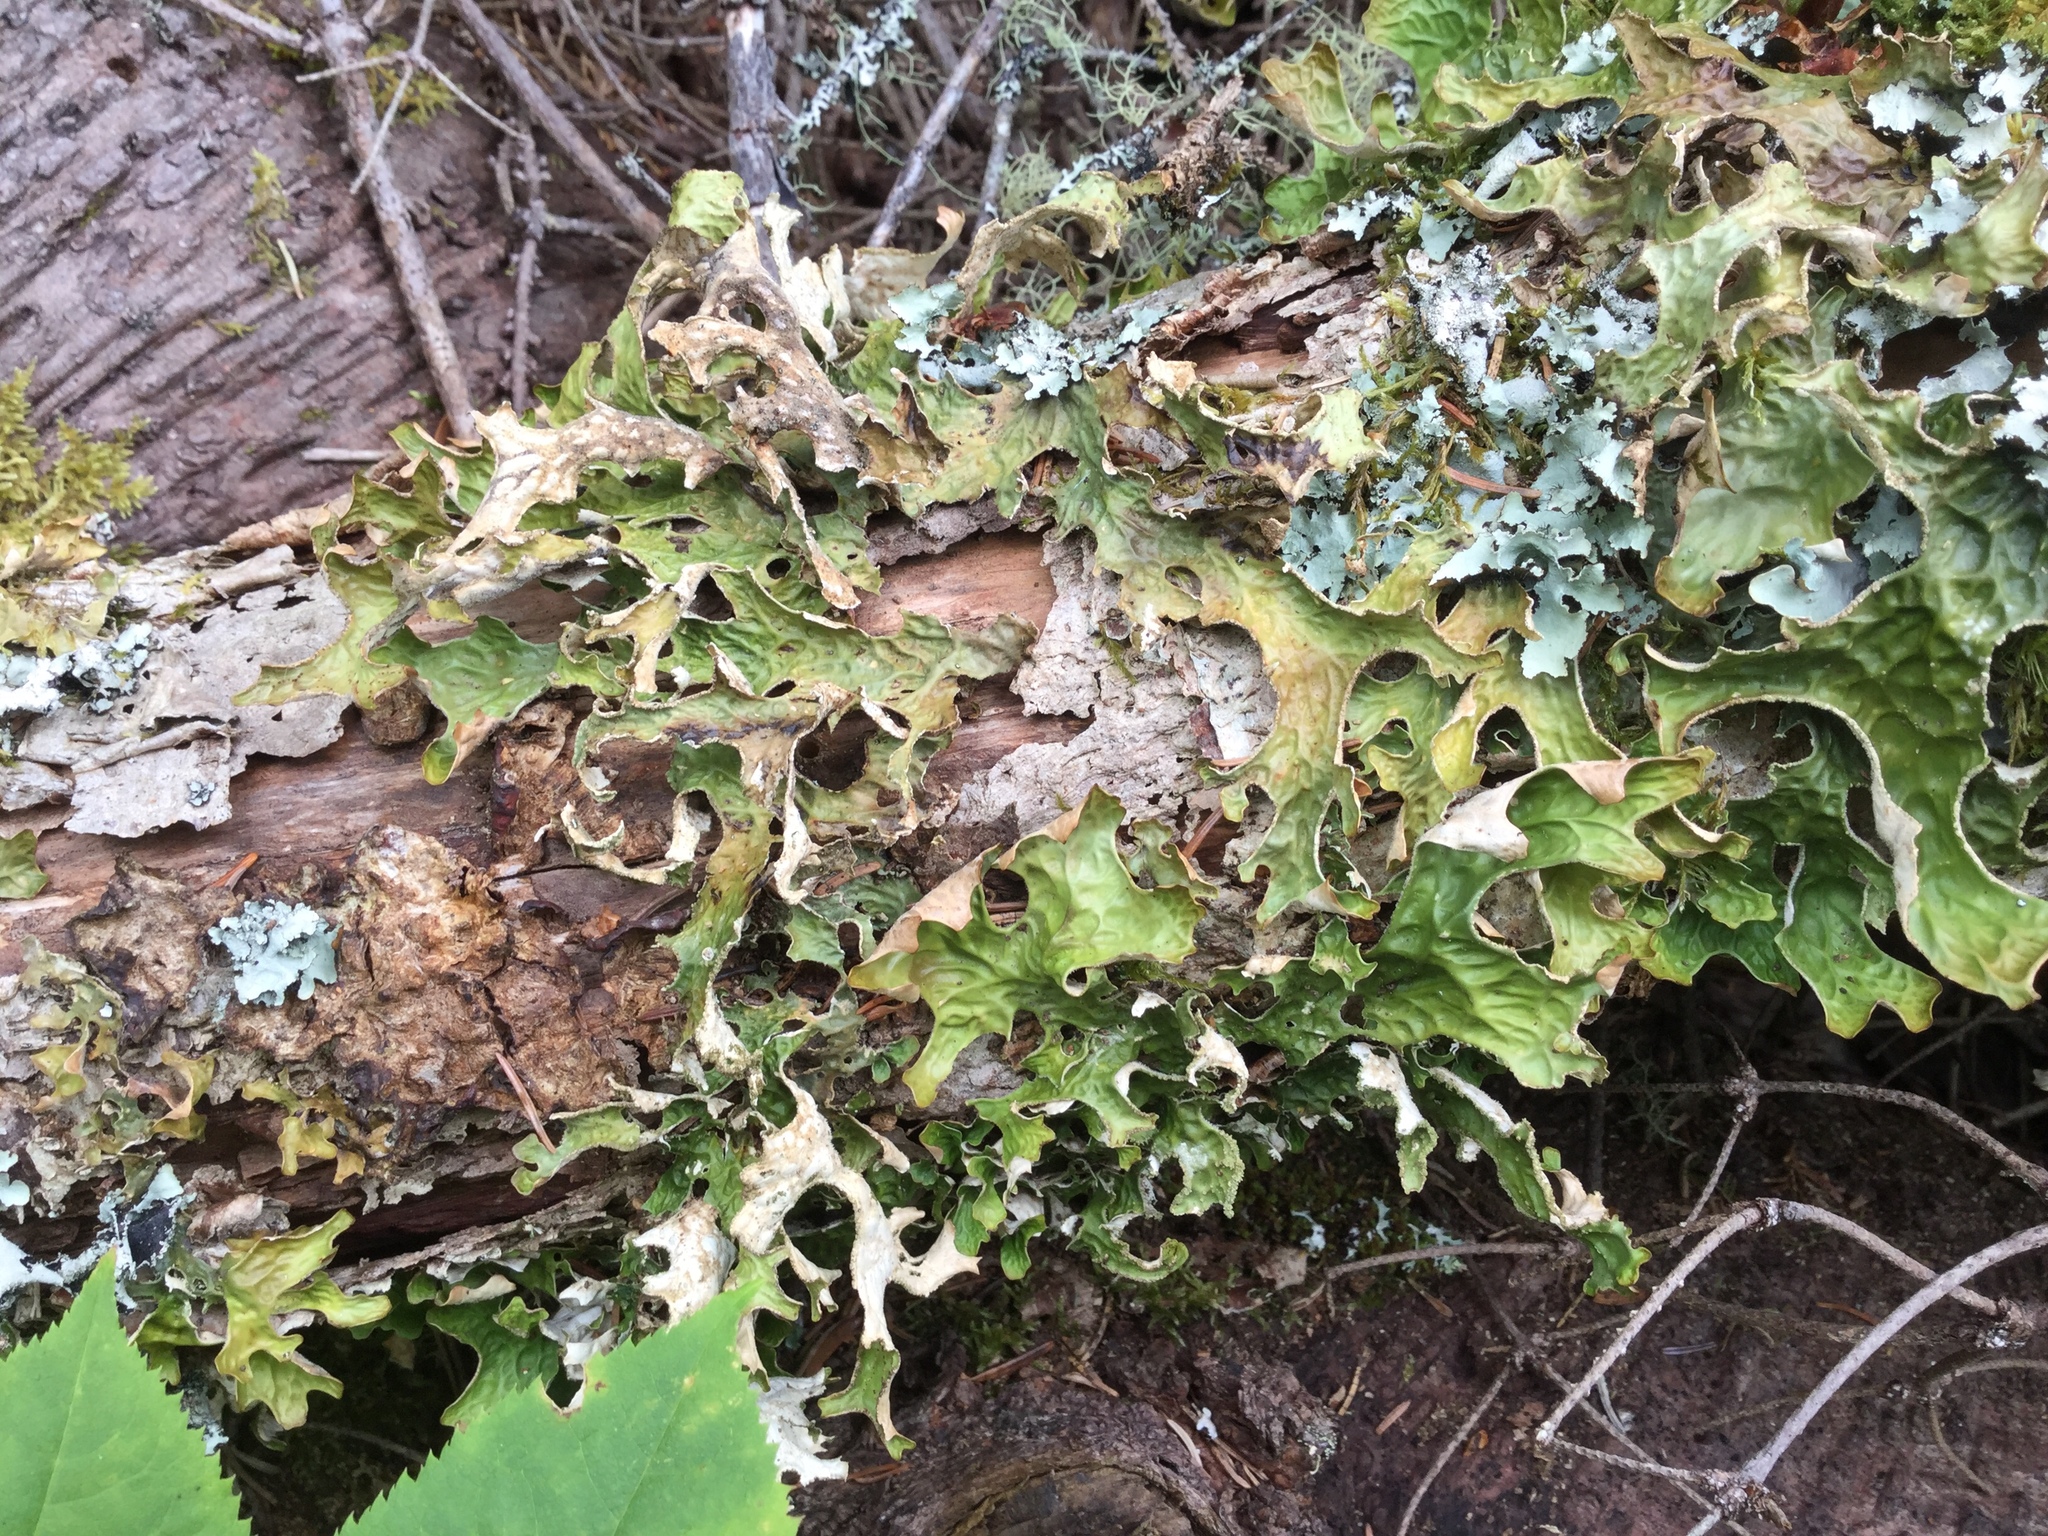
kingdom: Fungi
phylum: Ascomycota
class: Lecanoromycetes
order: Peltigerales
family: Lobariaceae
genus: Lobaria
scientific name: Lobaria pulmonaria
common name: Lungwort
